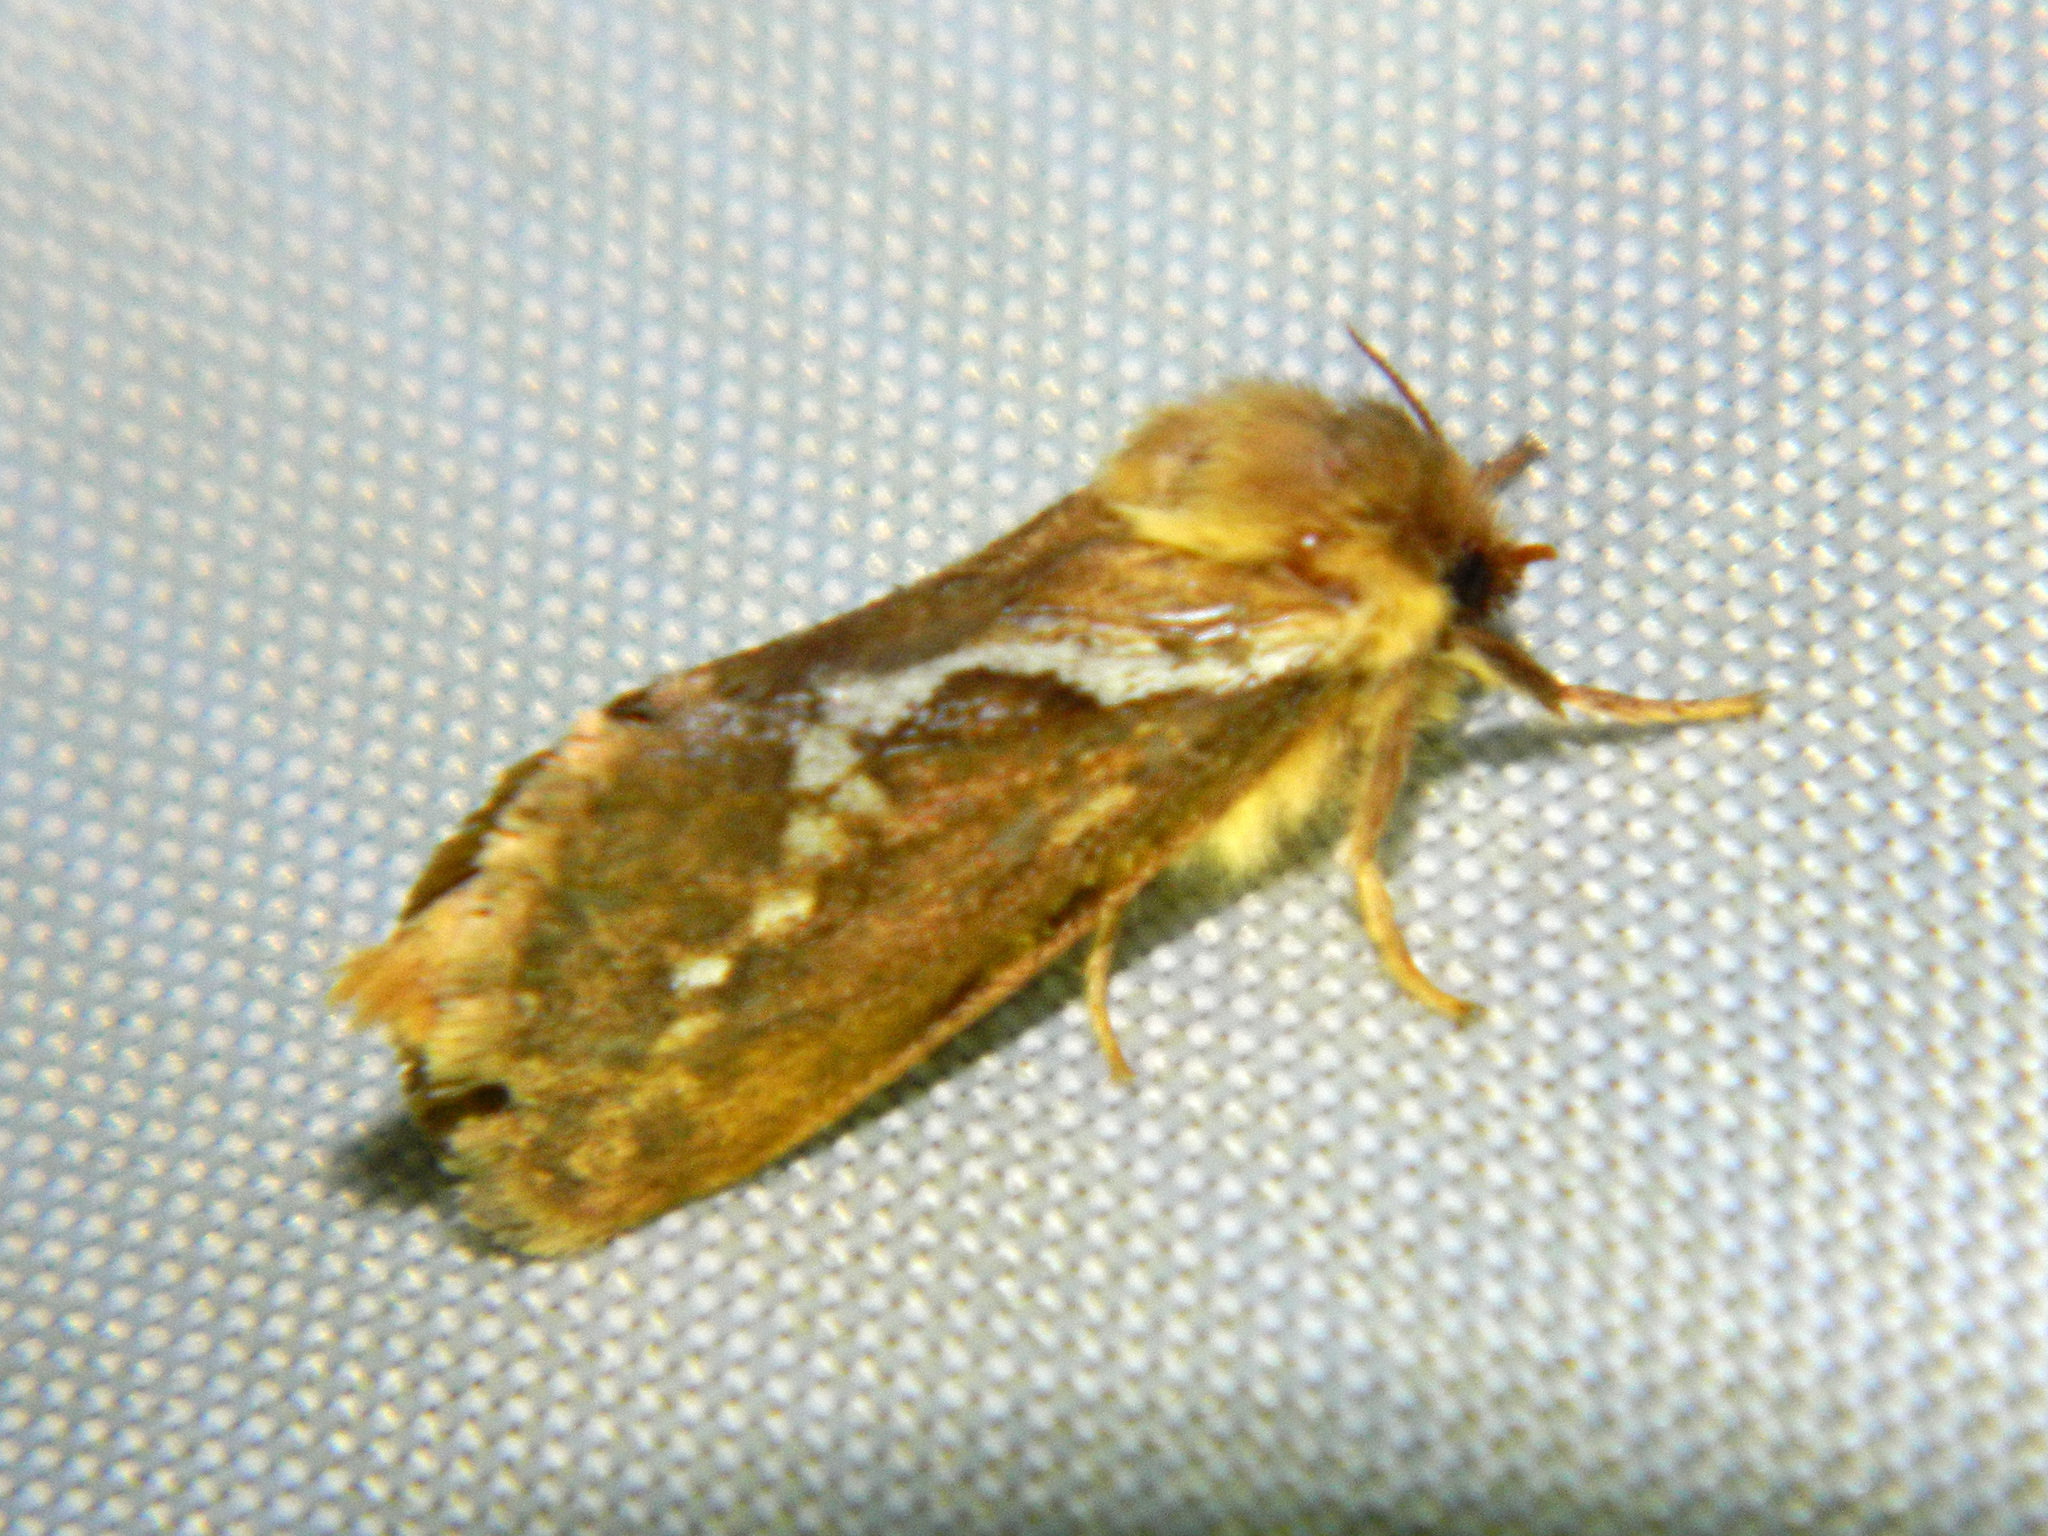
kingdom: Animalia
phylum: Arthropoda
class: Insecta
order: Lepidoptera
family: Hepialidae
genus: Korscheltellus
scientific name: Korscheltellus lupulina
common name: Common swift
